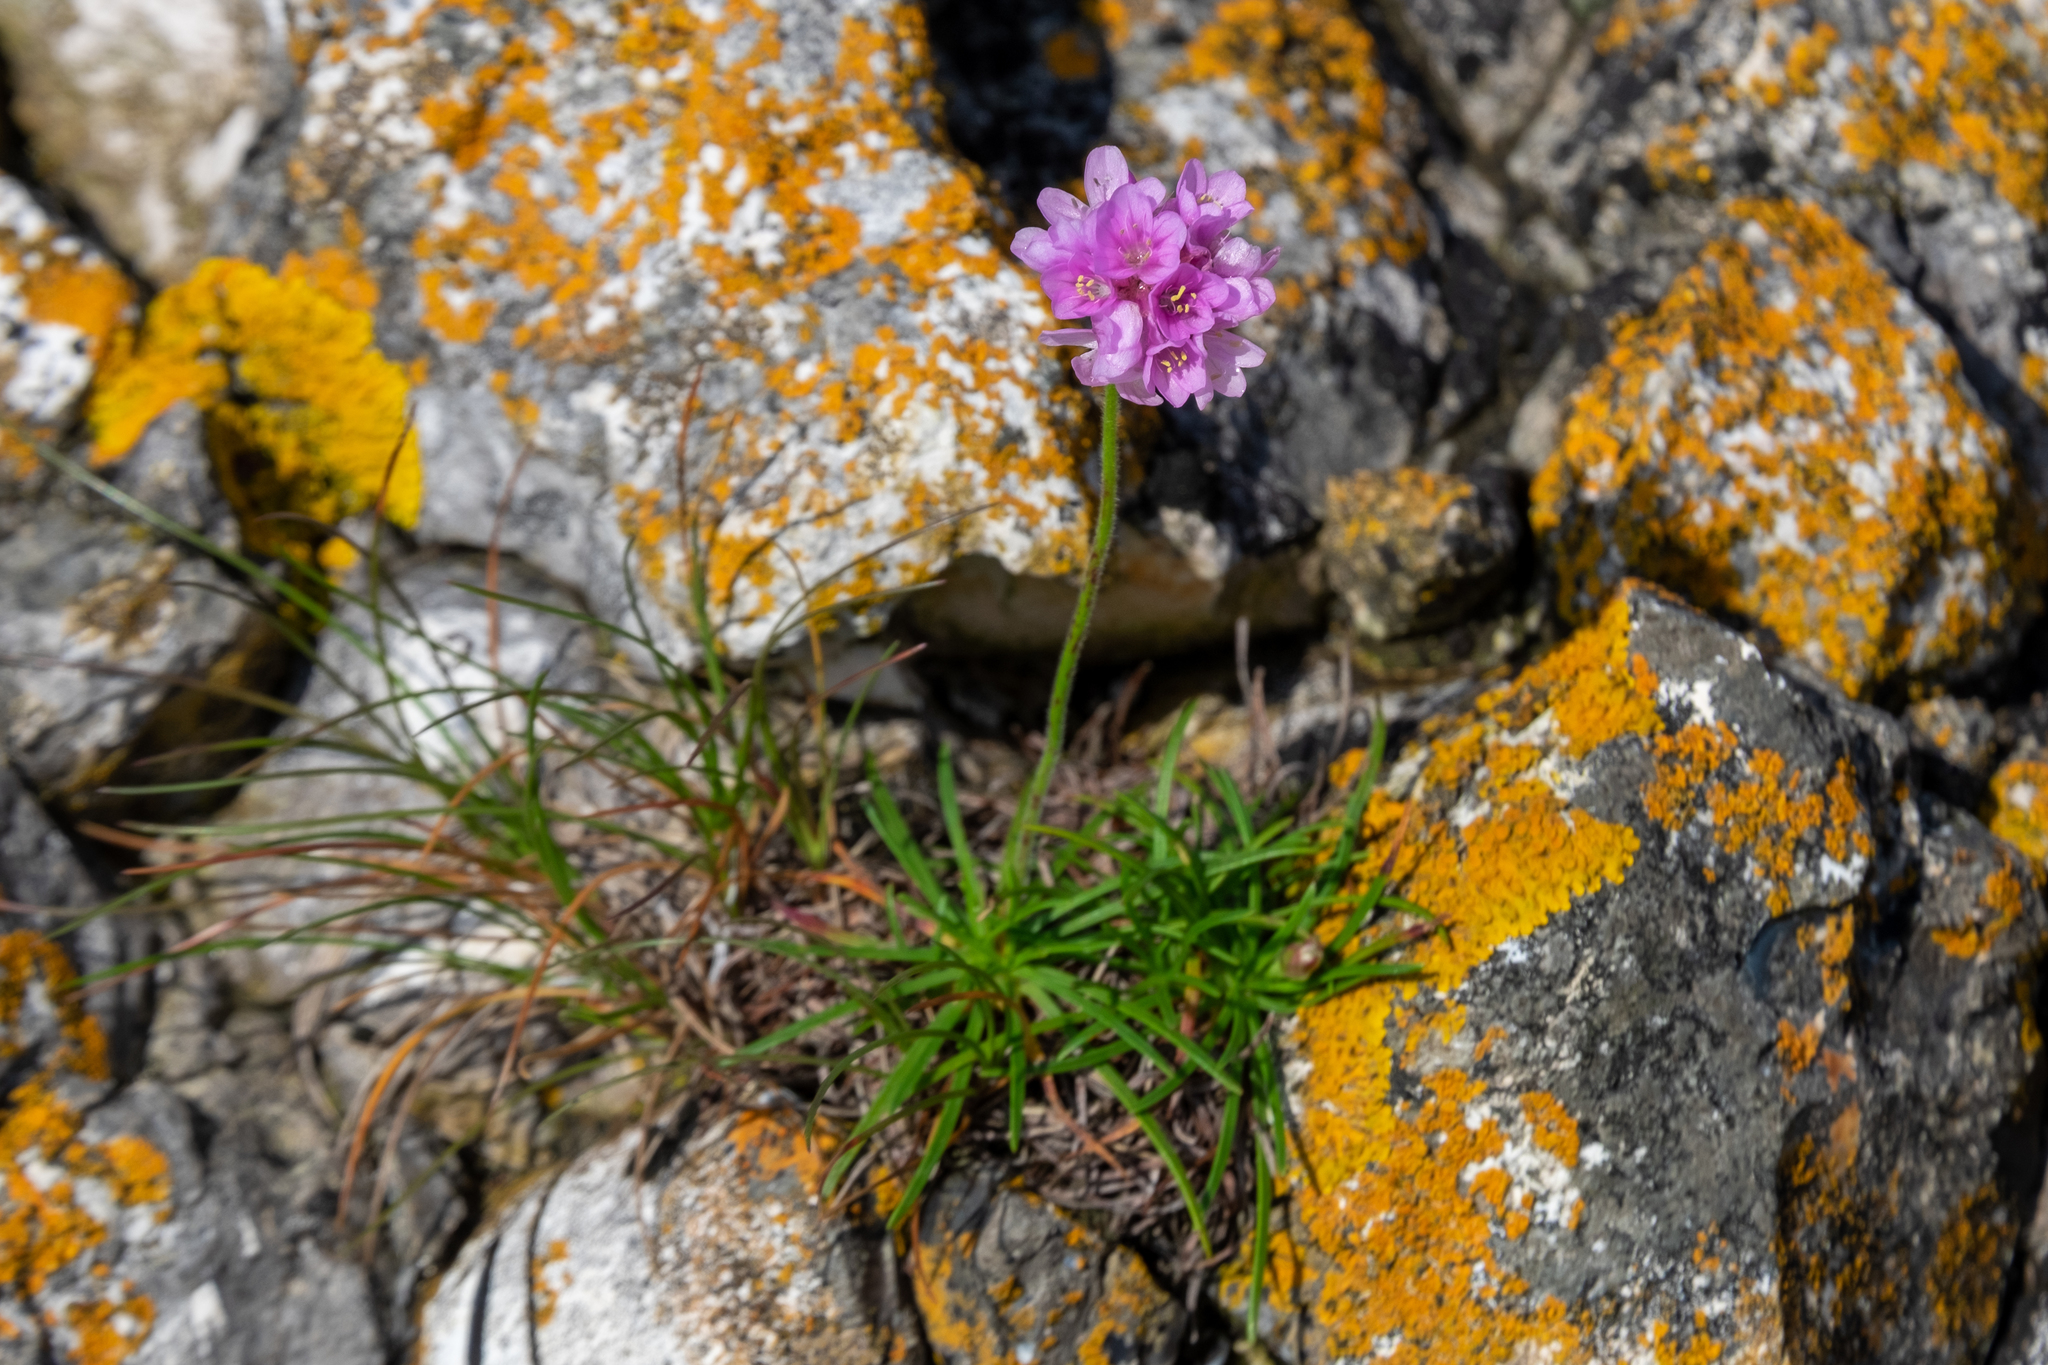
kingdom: Plantae
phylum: Tracheophyta
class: Magnoliopsida
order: Caryophyllales
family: Plumbaginaceae
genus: Armeria
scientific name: Armeria maritima
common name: Thrift
